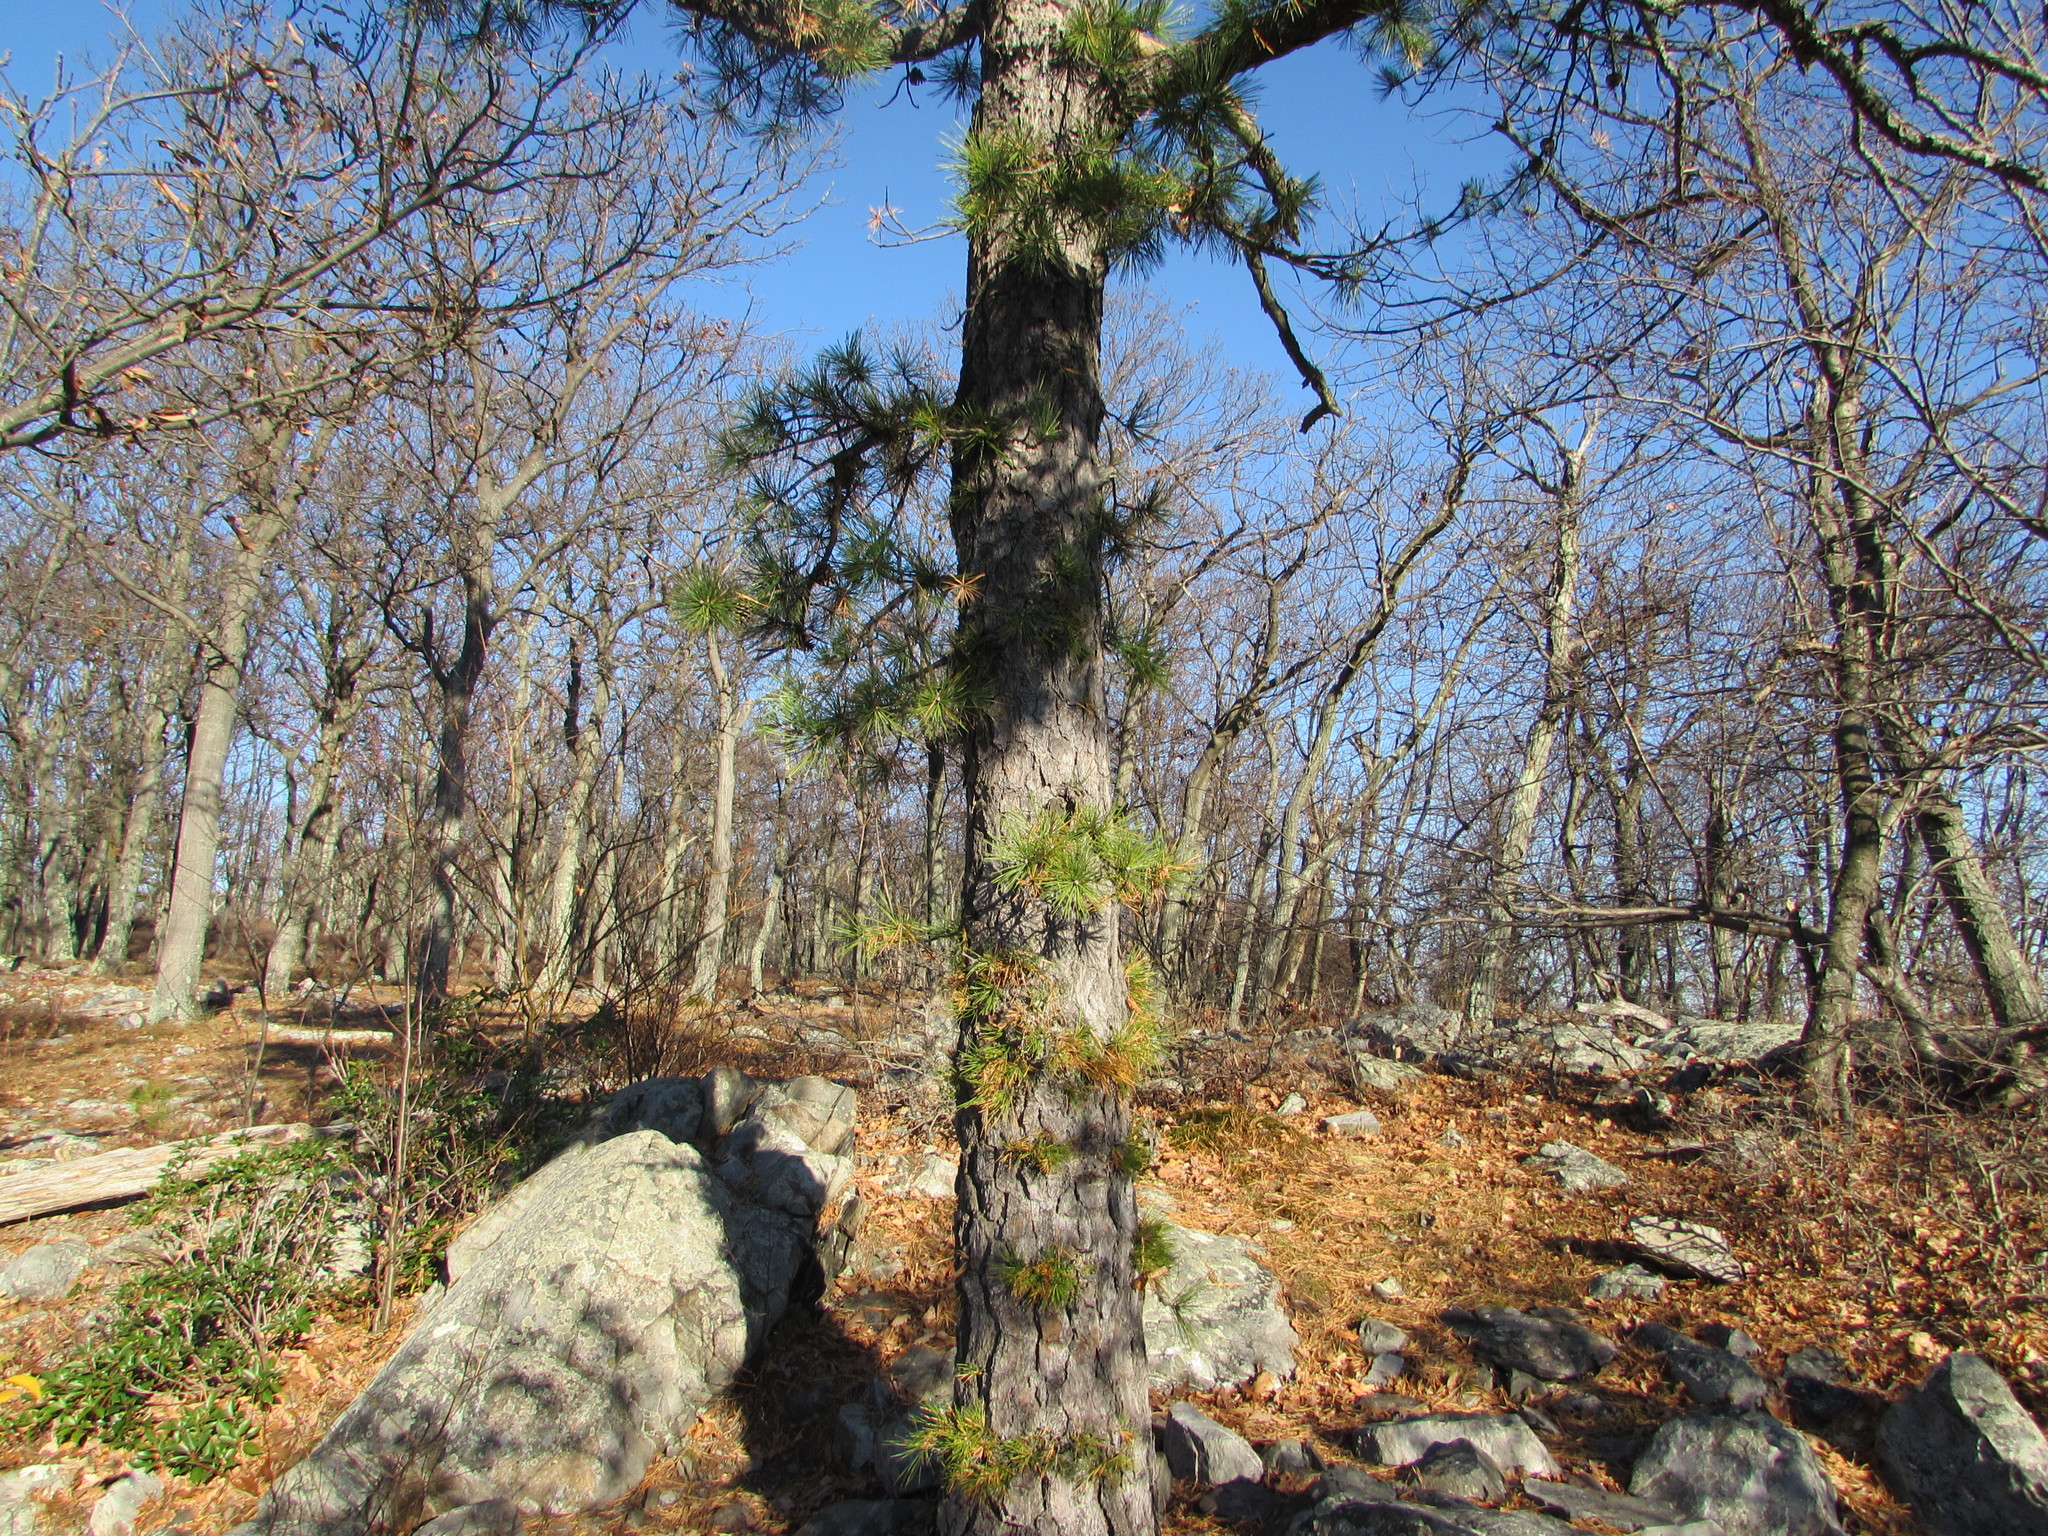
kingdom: Plantae
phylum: Tracheophyta
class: Pinopsida
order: Pinales
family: Pinaceae
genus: Pinus
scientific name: Pinus rigida
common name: Pitch pine
